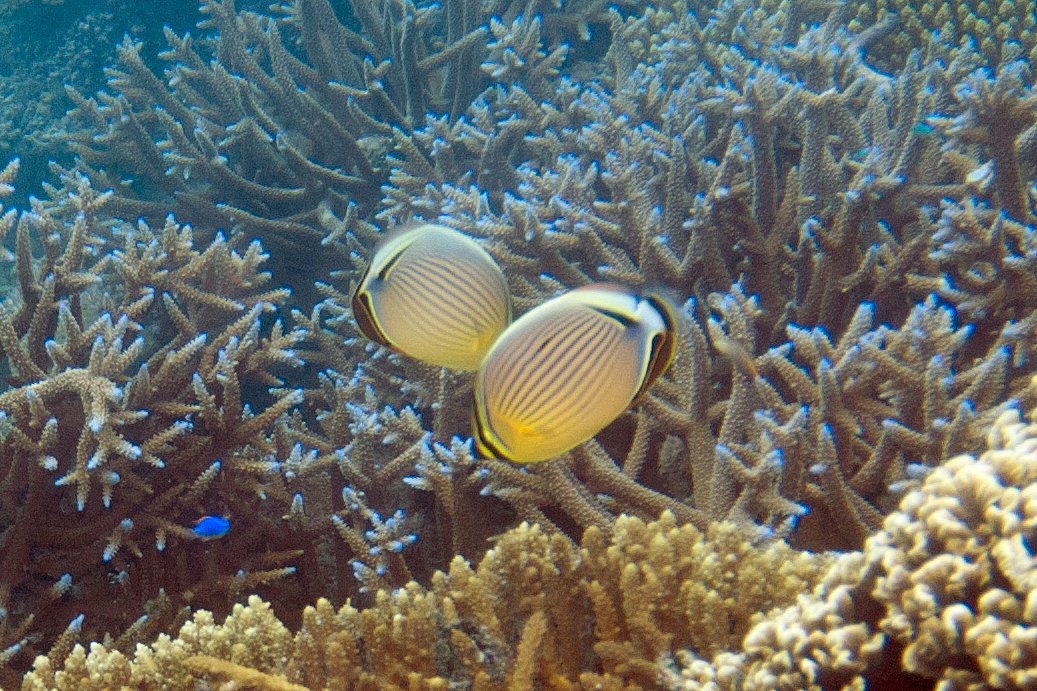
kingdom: Animalia
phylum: Chordata
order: Perciformes
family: Chaetodontidae
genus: Chaetodon
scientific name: Chaetodon lunulatus
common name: Redfin butterflyfish
